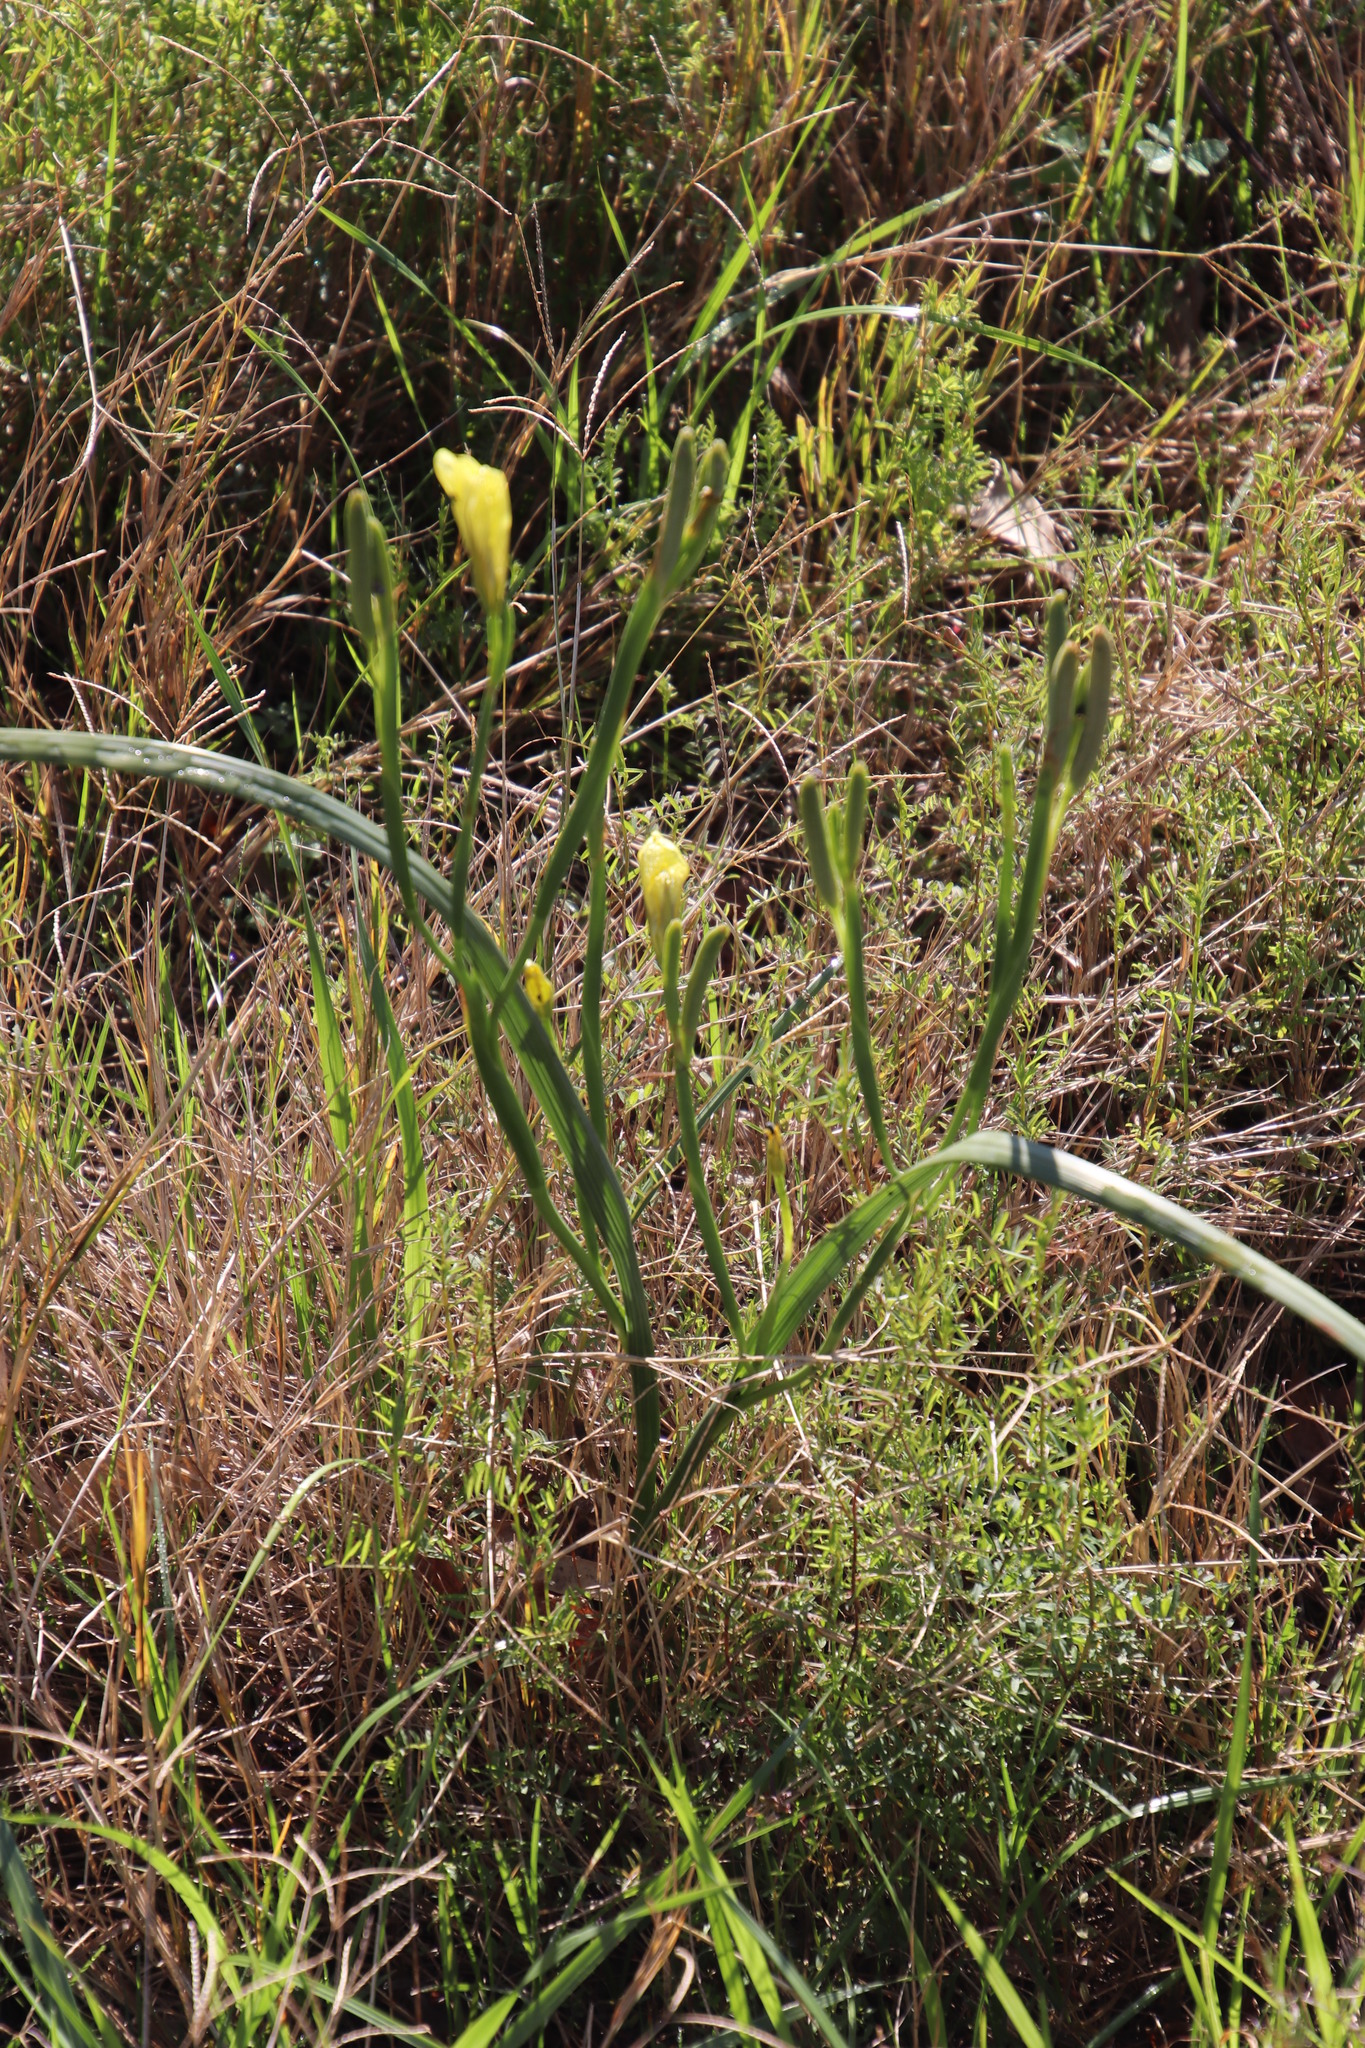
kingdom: Plantae
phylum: Tracheophyta
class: Liliopsida
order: Asparagales
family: Iridaceae
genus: Moraea
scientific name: Moraea collina
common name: Cape-tulip
